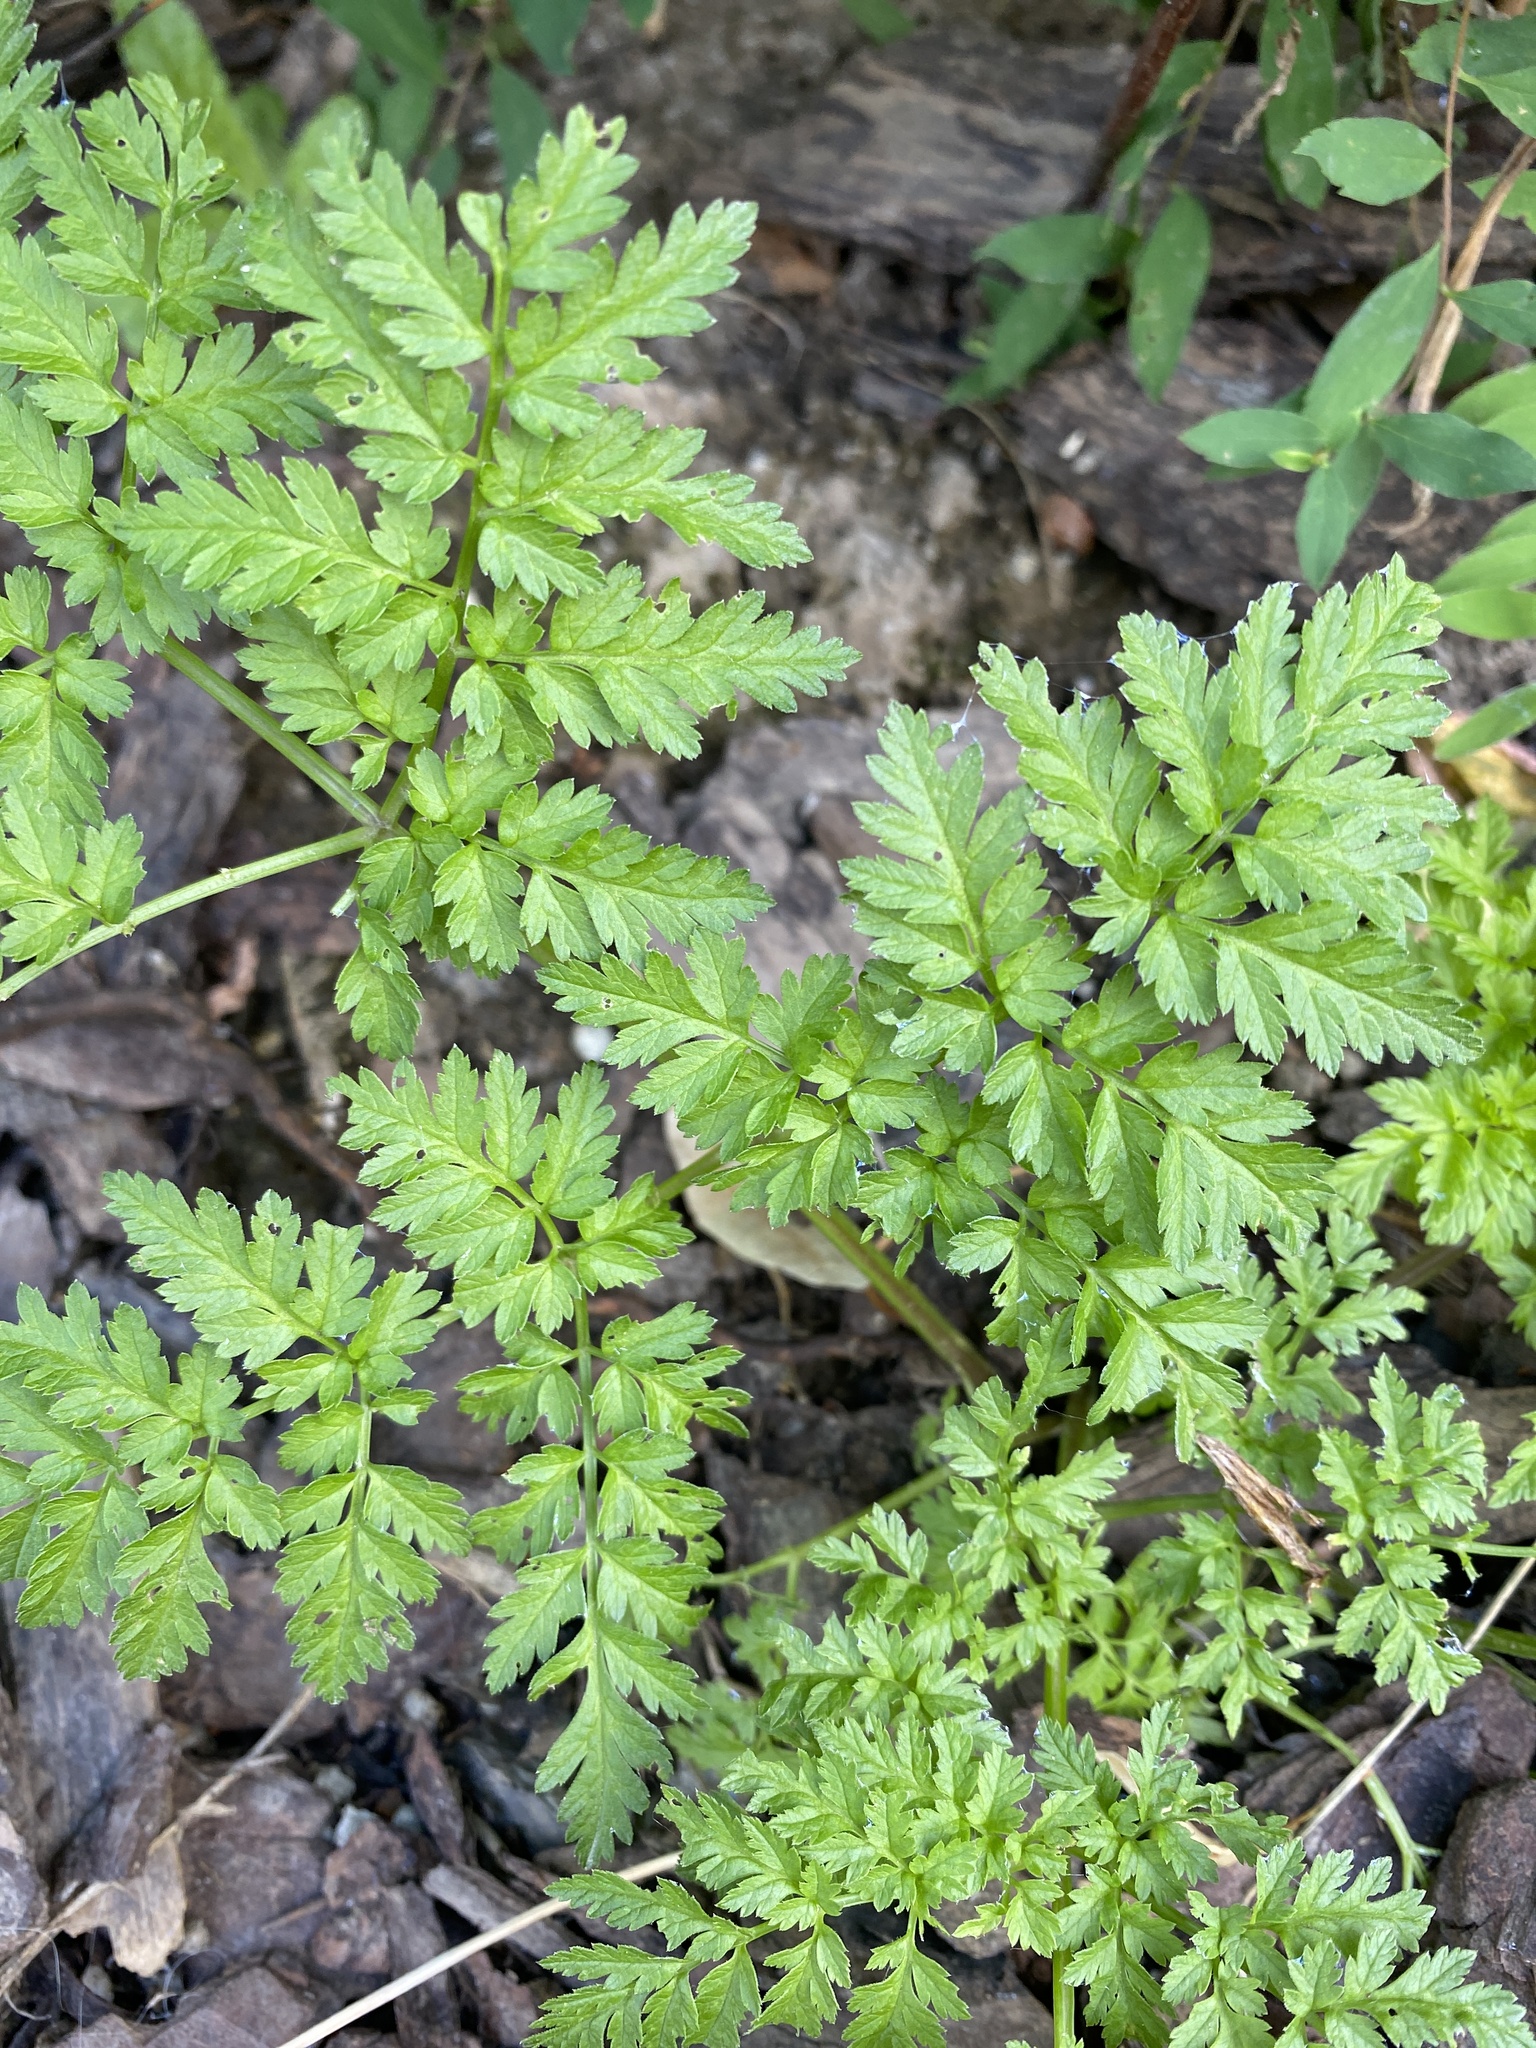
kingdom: Plantae
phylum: Tracheophyta
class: Magnoliopsida
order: Apiales
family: Apiaceae
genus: Anthriscus
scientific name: Anthriscus sylvestris
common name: Cow parsley
